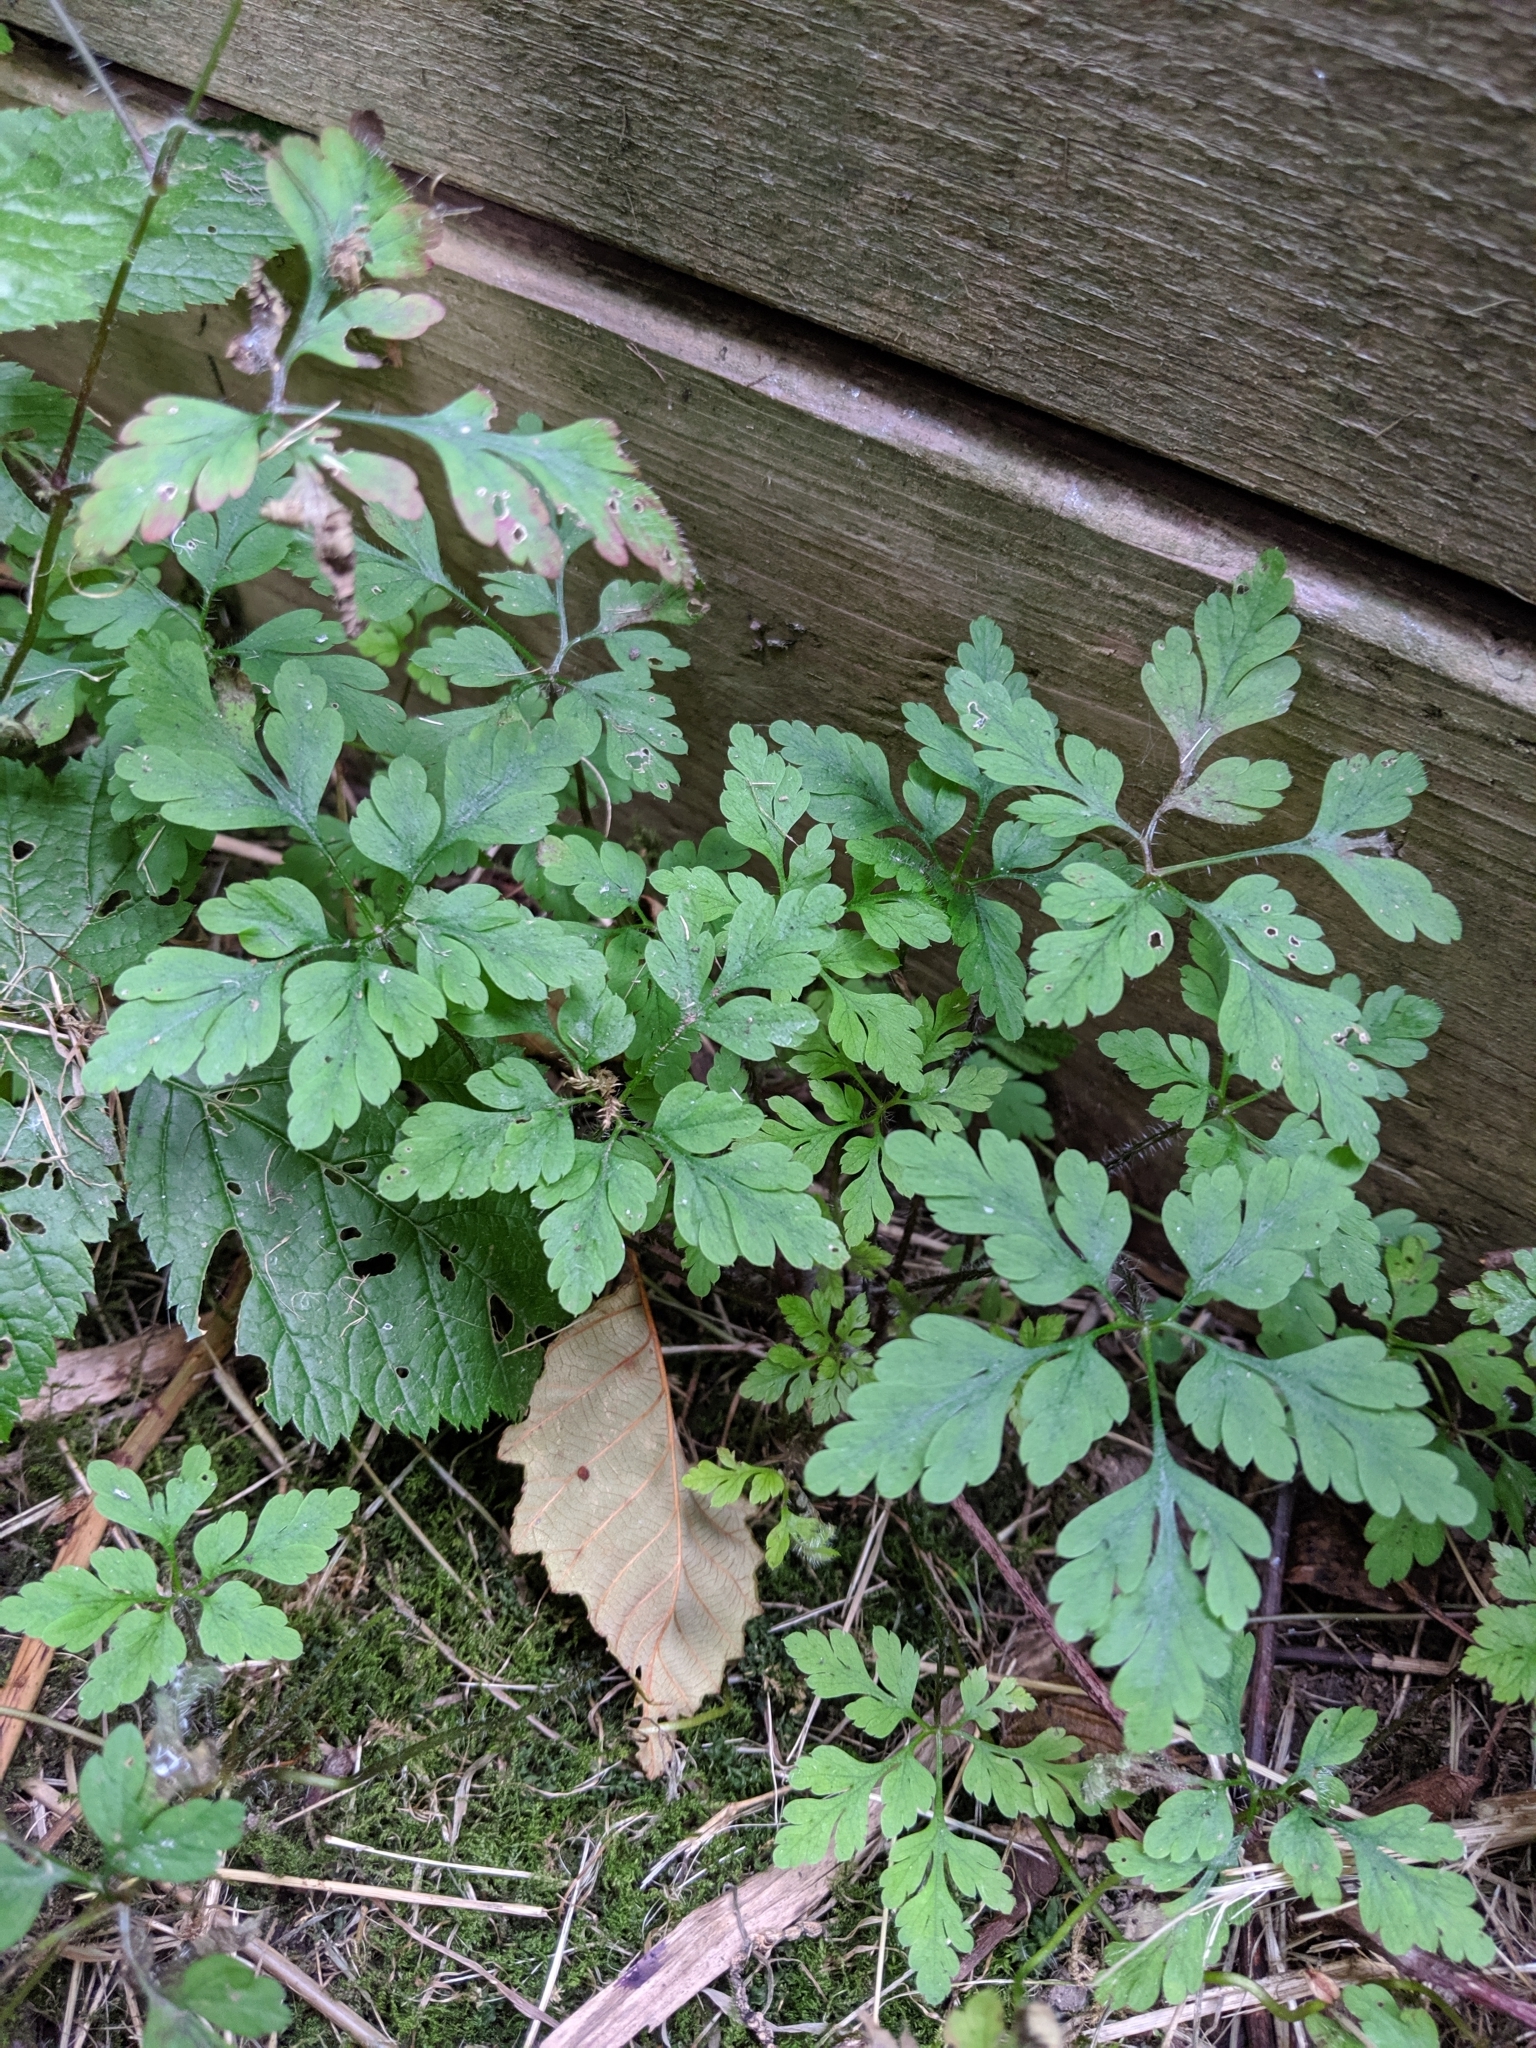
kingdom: Plantae
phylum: Tracheophyta
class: Magnoliopsida
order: Geraniales
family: Geraniaceae
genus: Geranium
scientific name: Geranium robertianum
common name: Herb-robert
